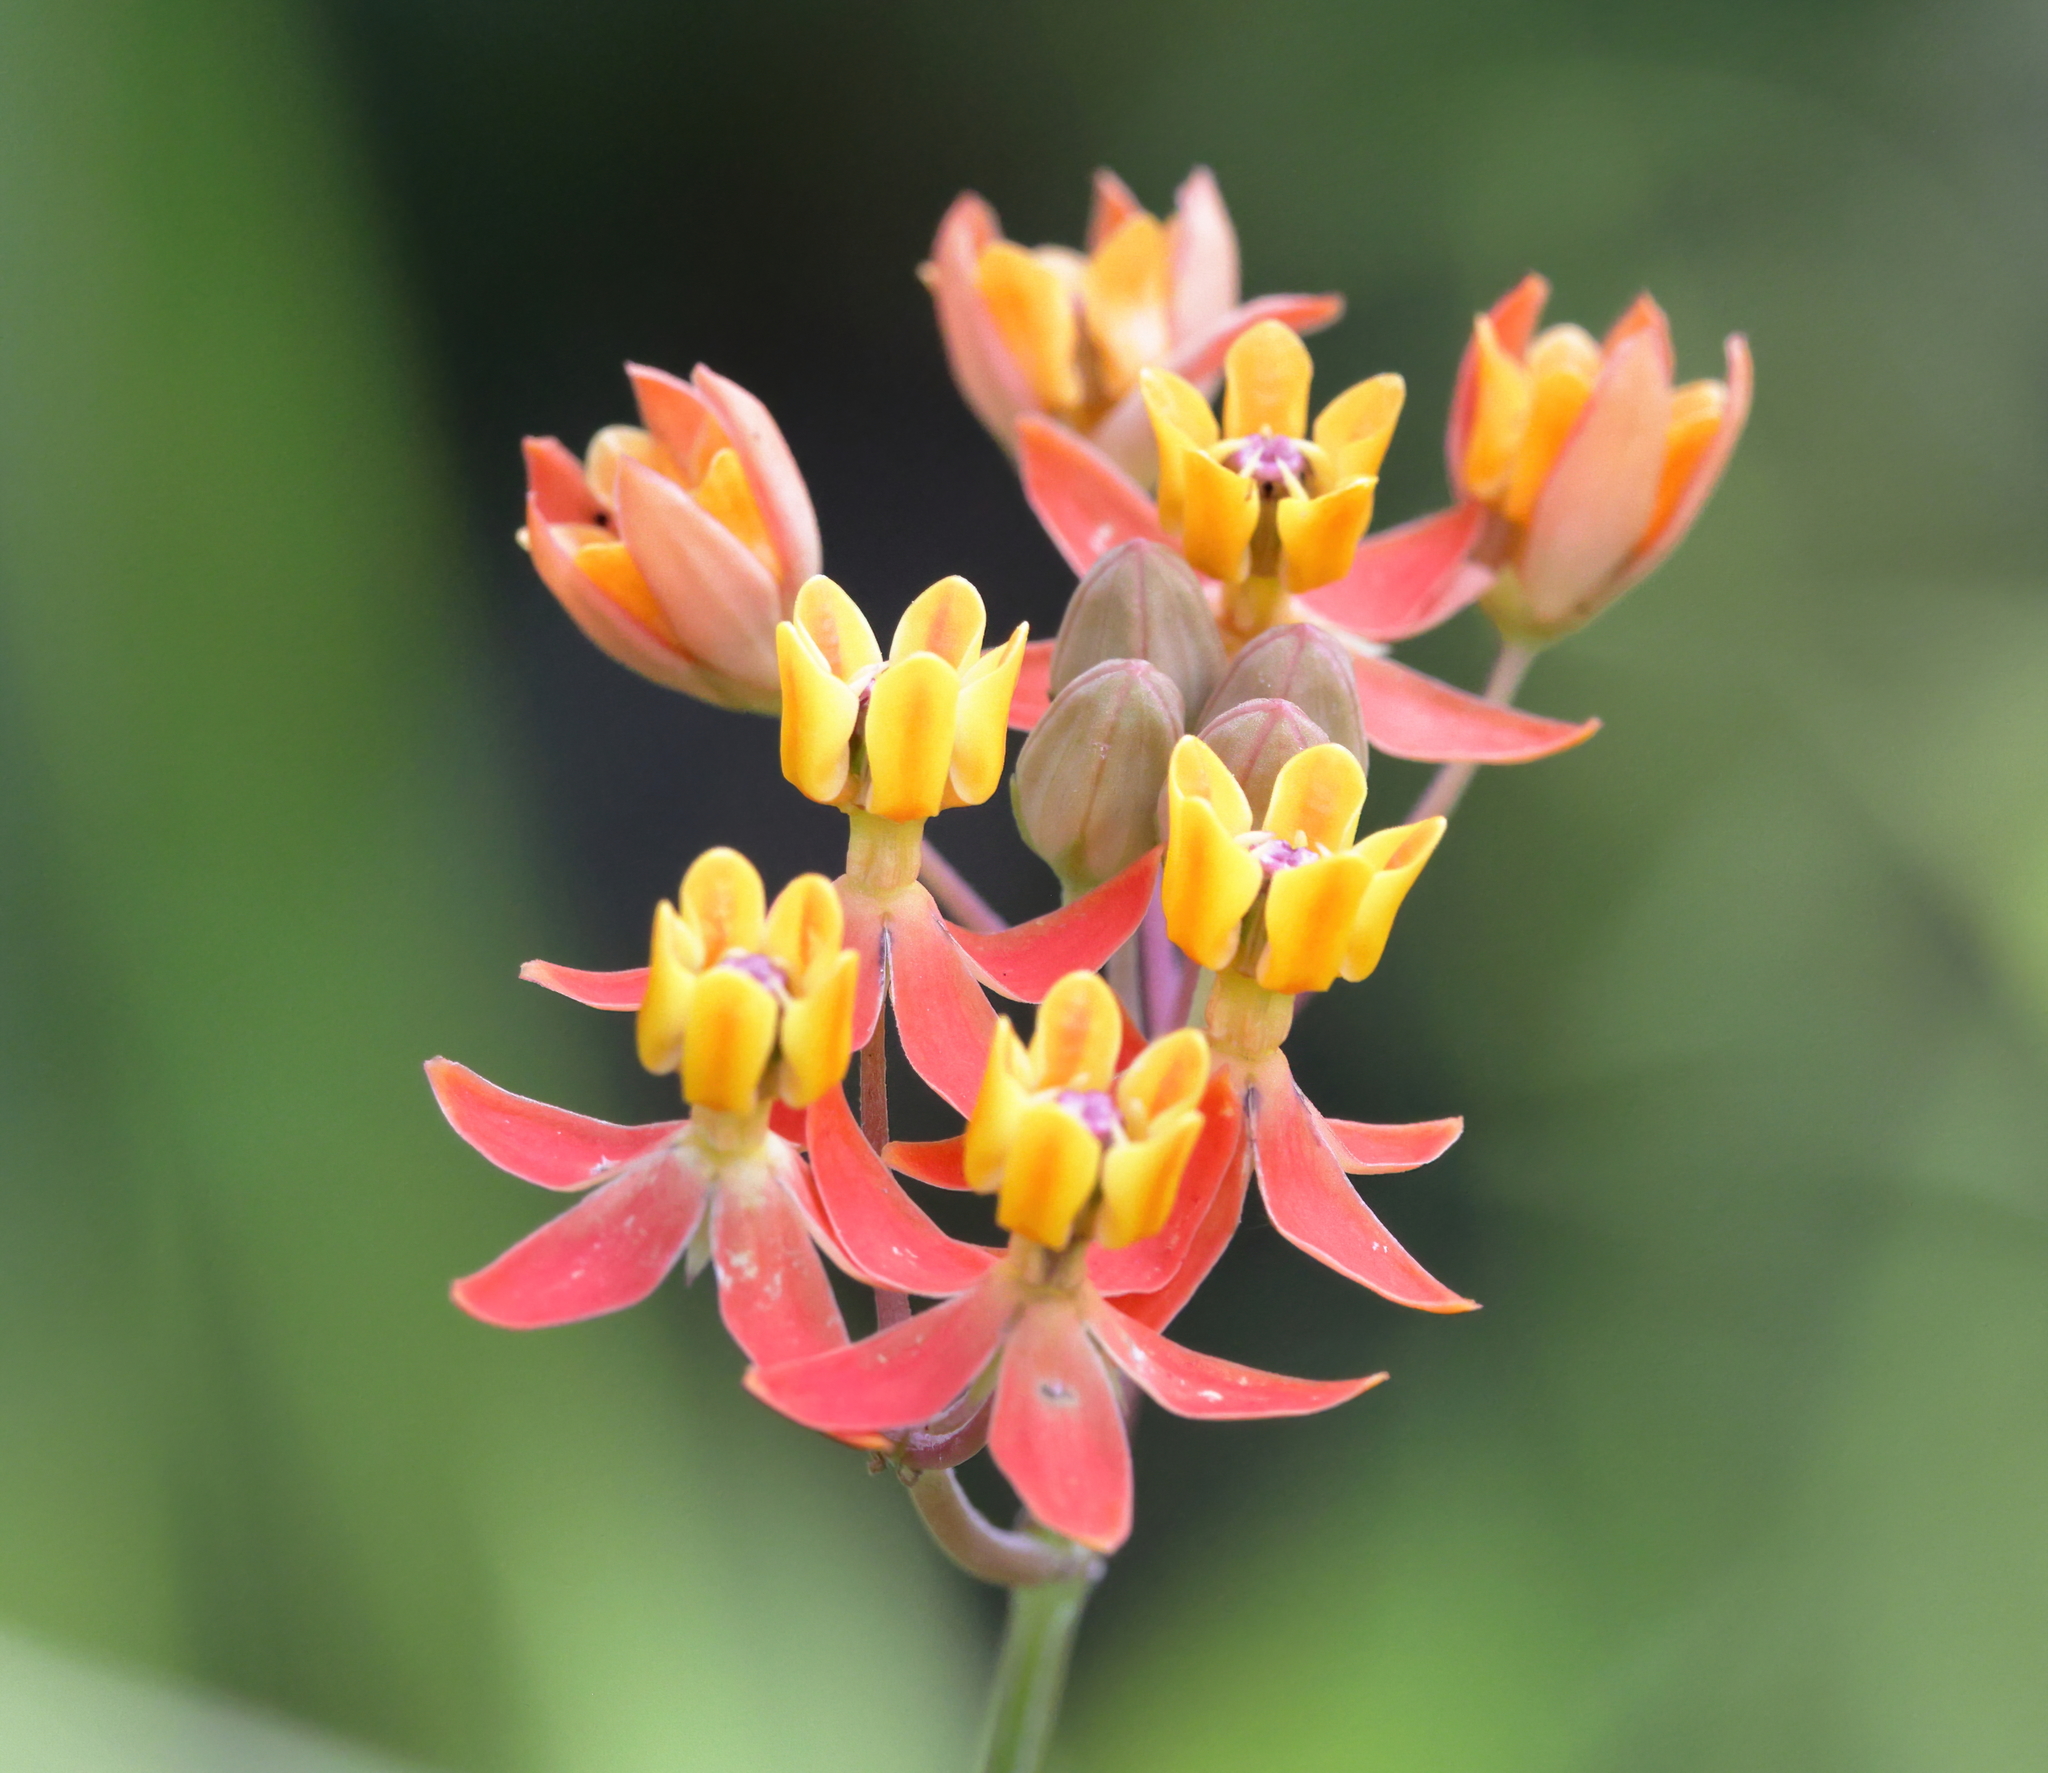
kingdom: Plantae
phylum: Tracheophyta
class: Magnoliopsida
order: Gentianales
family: Apocynaceae
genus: Asclepias
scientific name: Asclepias lanceolata
